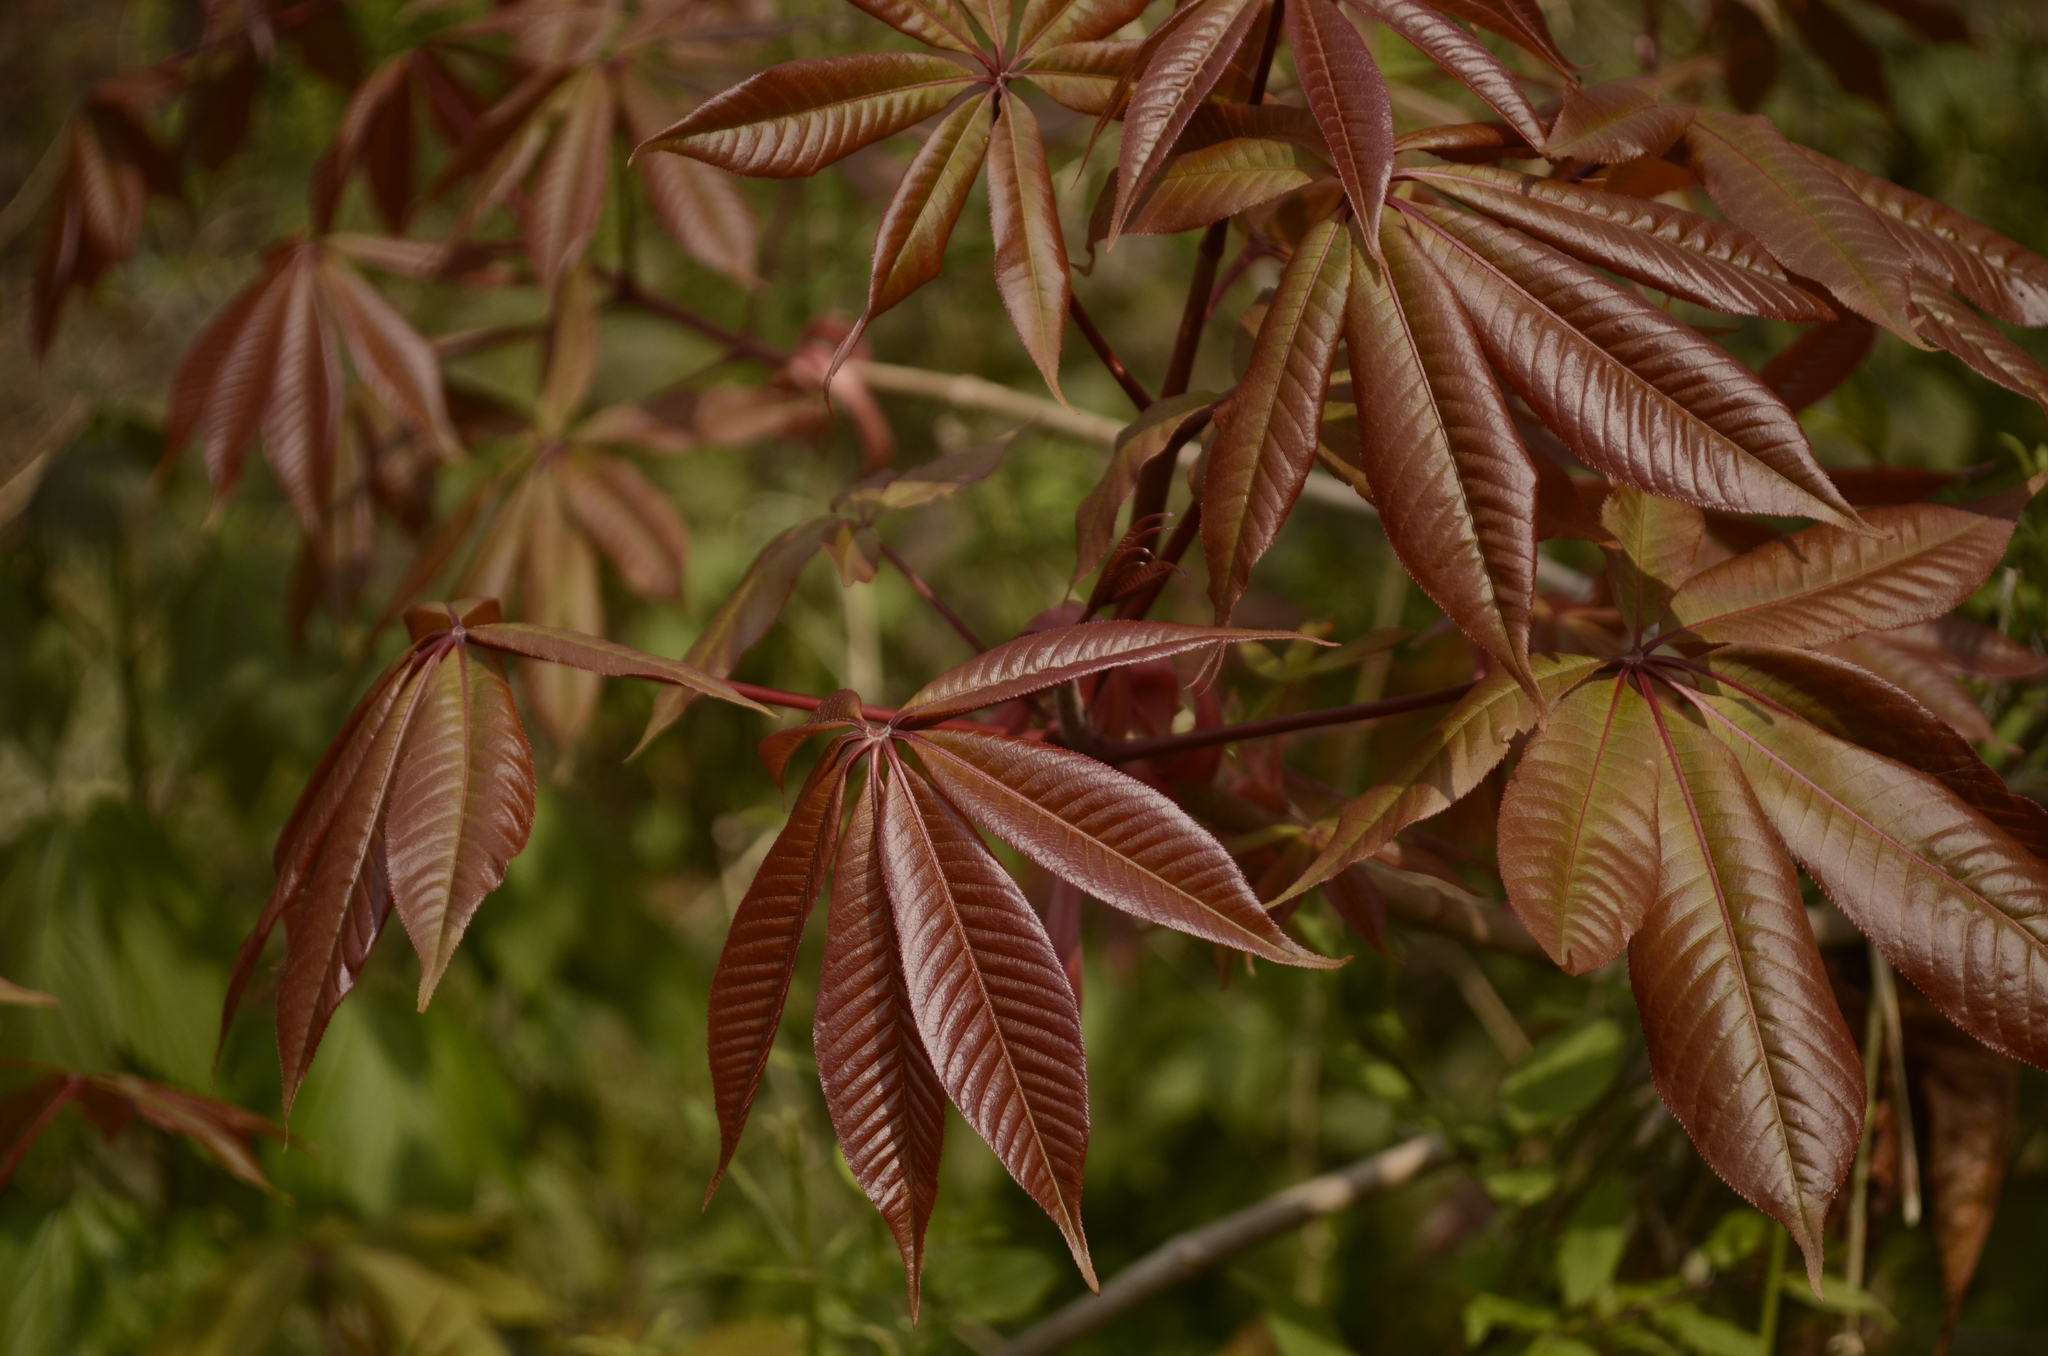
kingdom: Plantae
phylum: Tracheophyta
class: Magnoliopsida
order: Sapindales
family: Sapindaceae
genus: Aesculus
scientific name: Aesculus indica
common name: Indian horse-chestnut
